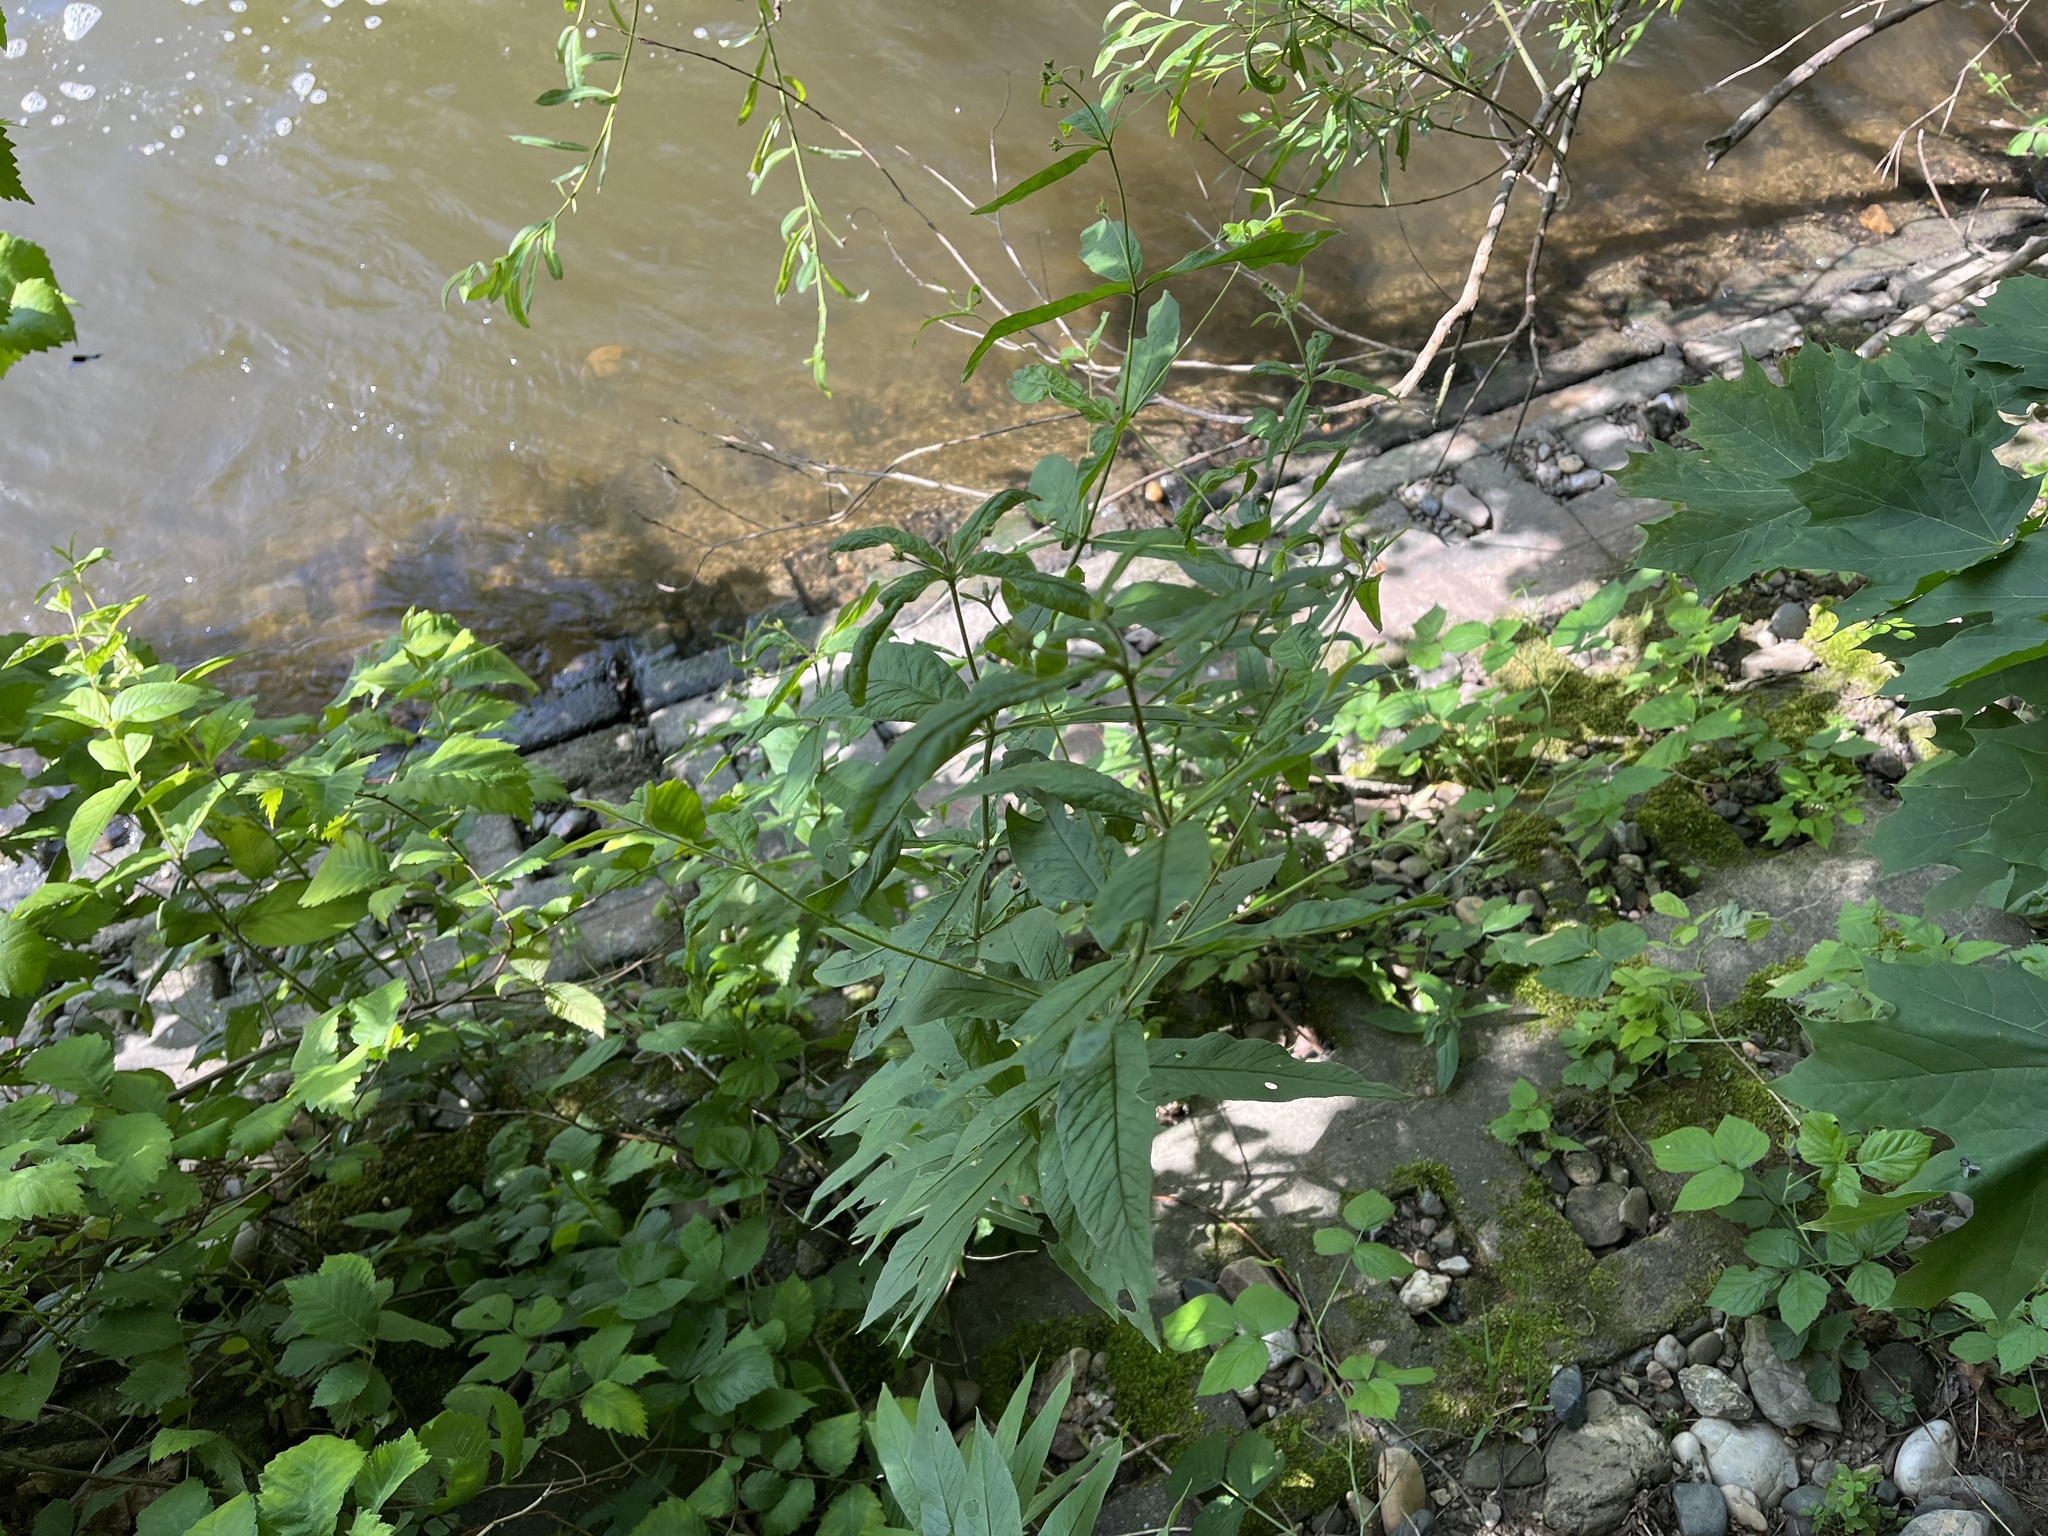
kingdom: Plantae
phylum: Tracheophyta
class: Magnoliopsida
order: Ericales
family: Primulaceae
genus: Lysimachia
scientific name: Lysimachia vulgaris
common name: Yellow loosestrife
